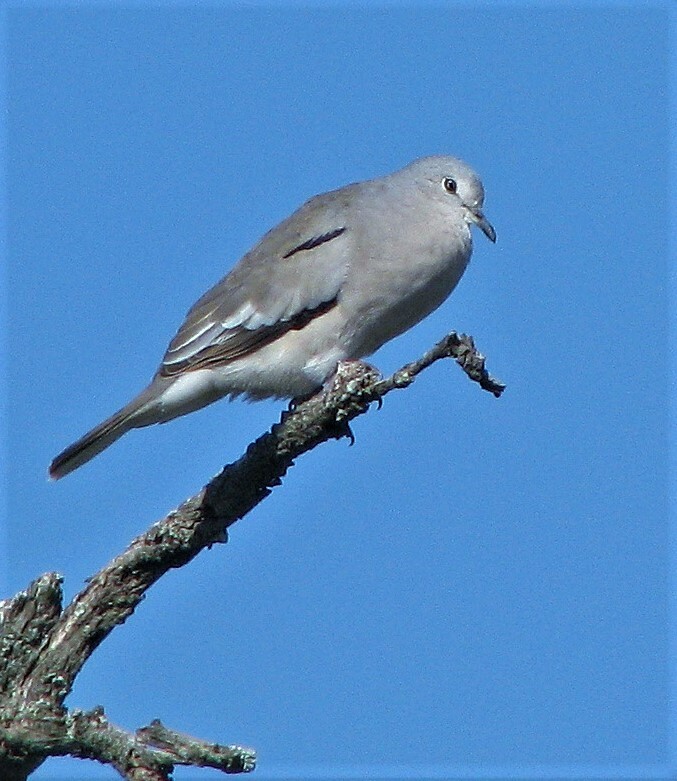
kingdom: Animalia
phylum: Chordata
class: Aves
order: Columbiformes
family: Columbidae
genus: Columbina
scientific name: Columbina picui
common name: Picui ground dove
